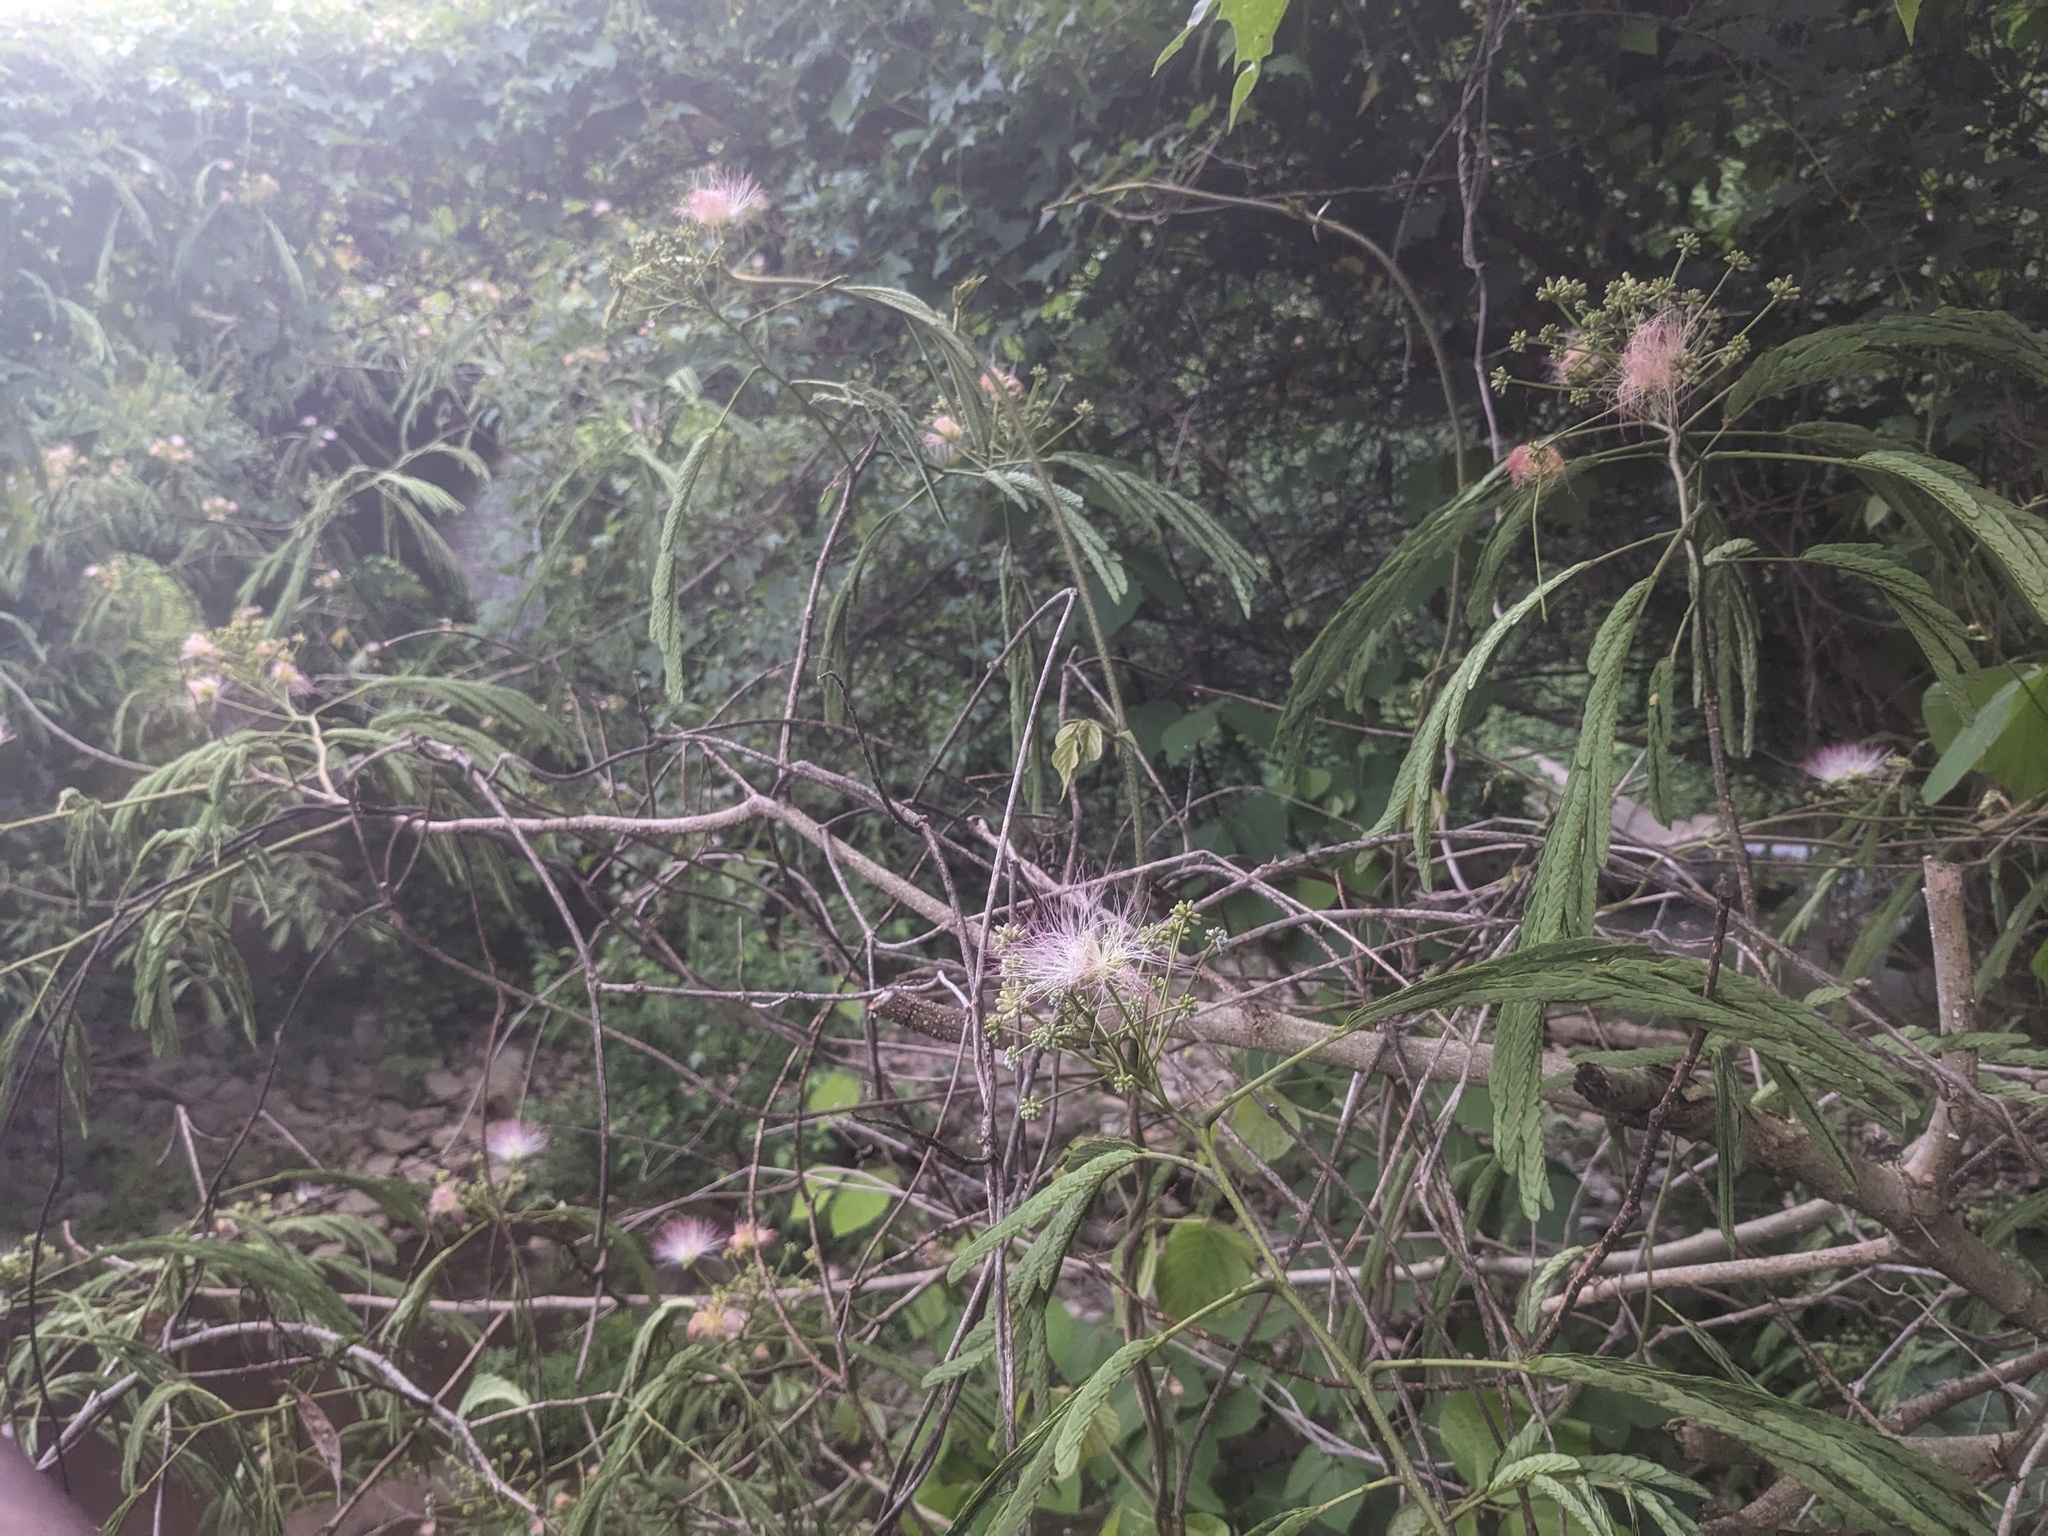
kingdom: Plantae
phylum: Tracheophyta
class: Magnoliopsida
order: Fabales
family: Fabaceae
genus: Albizia
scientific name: Albizia julibrissin
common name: Silktree
